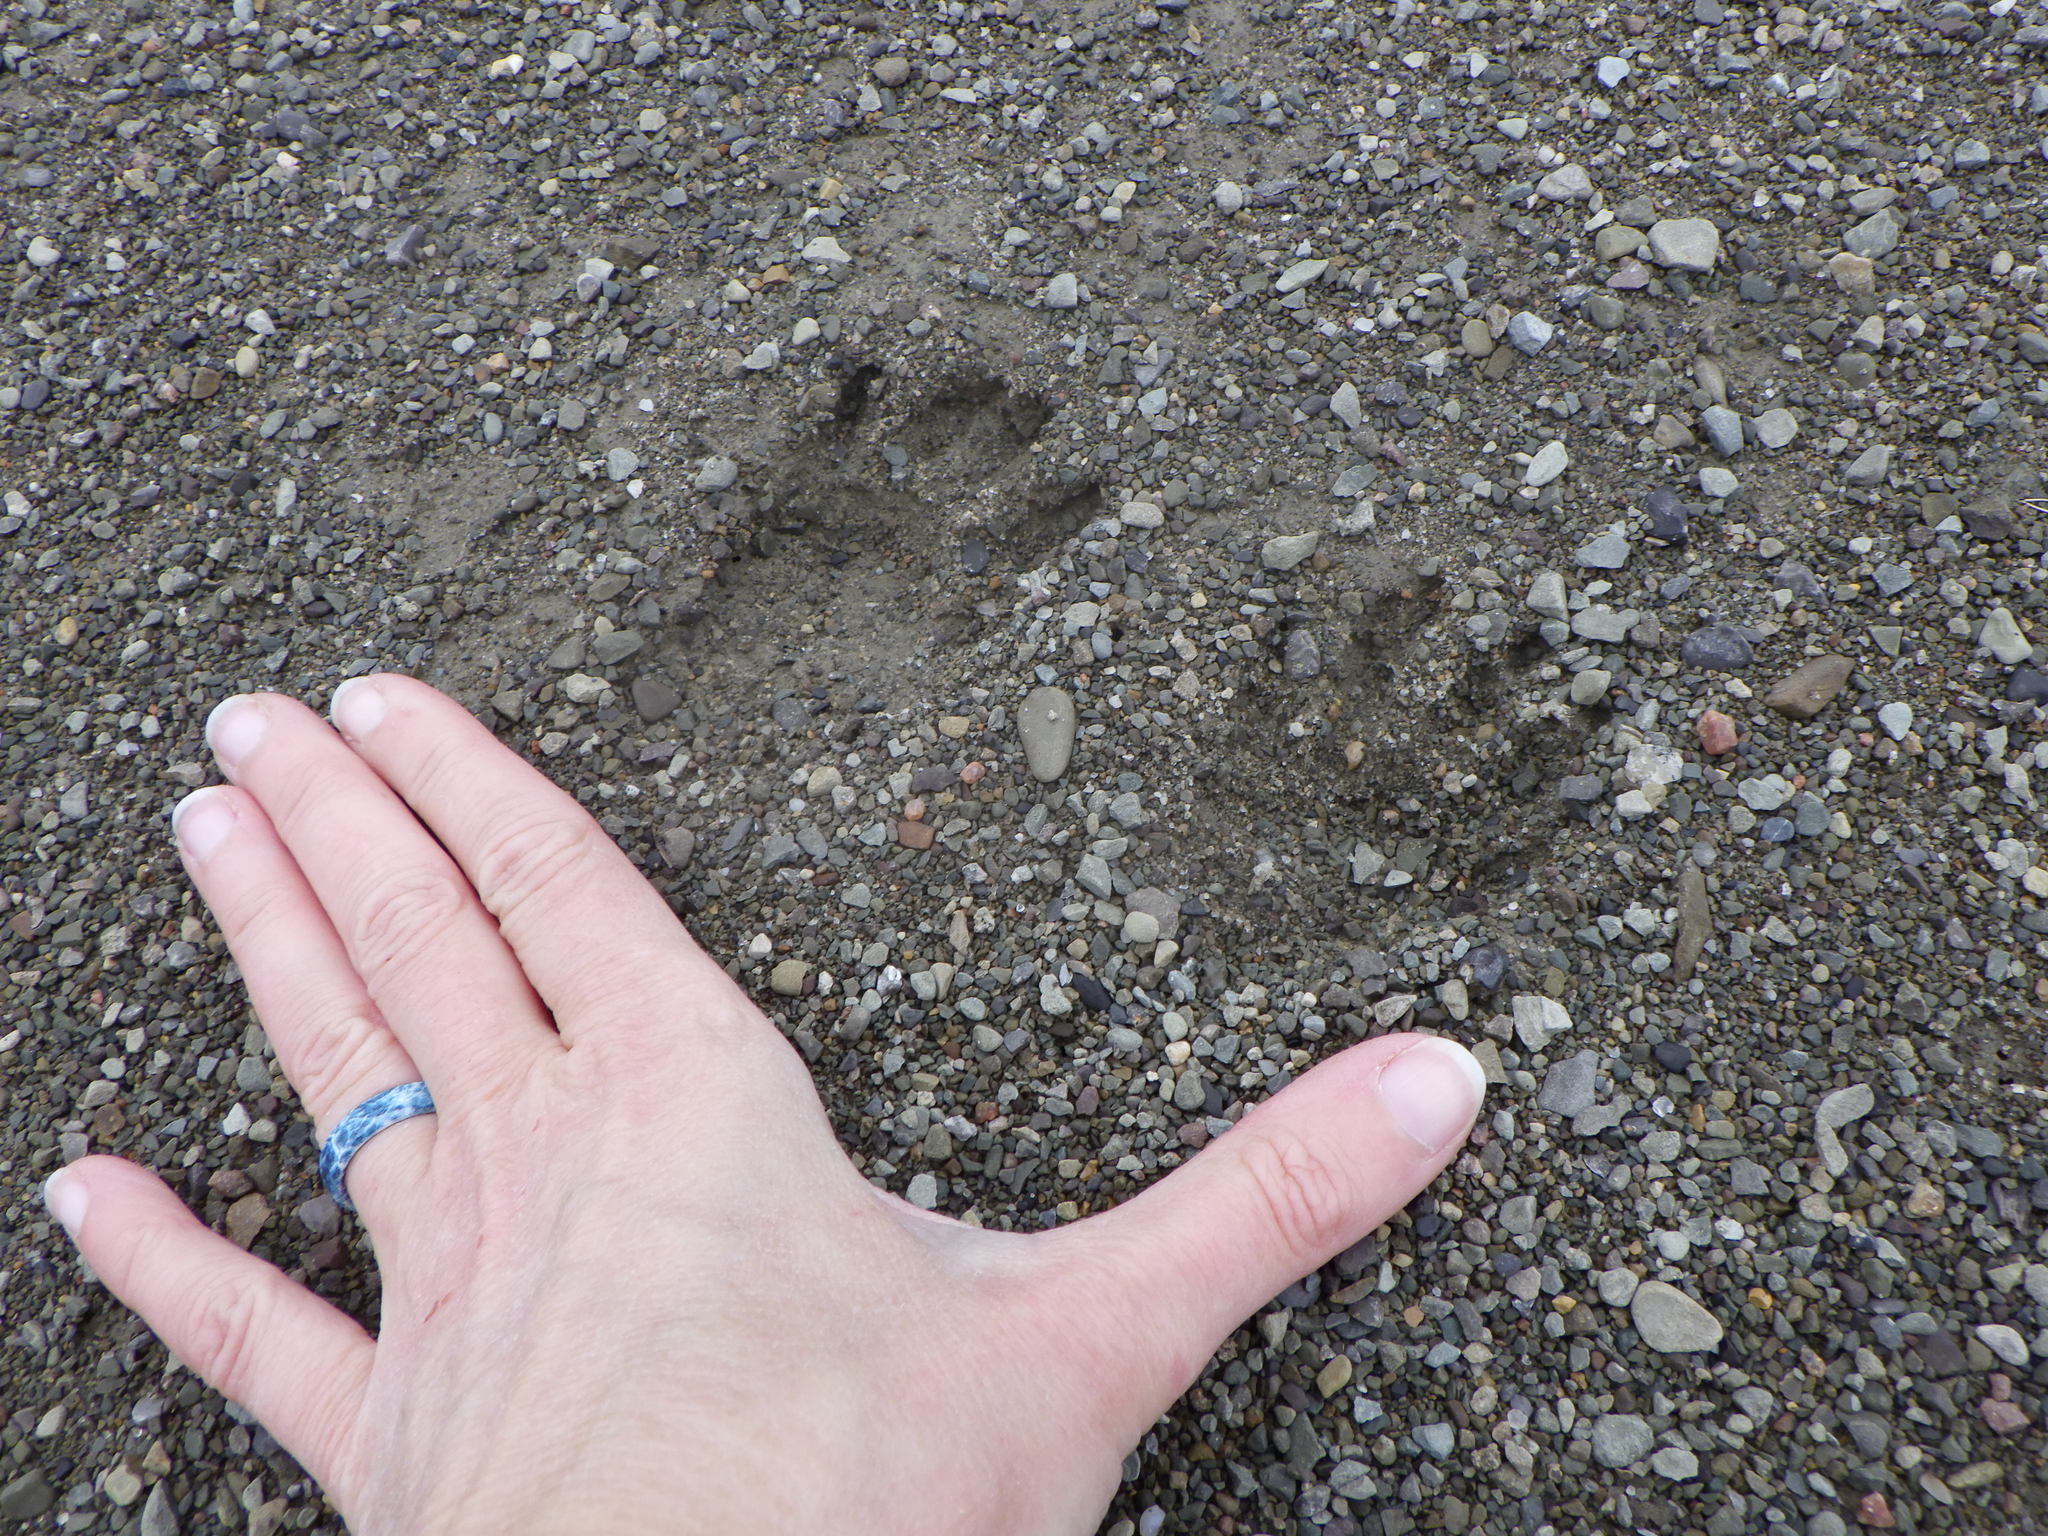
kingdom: Animalia
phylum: Chordata
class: Mammalia
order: Carnivora
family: Procyonidae
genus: Procyon
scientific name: Procyon lotor
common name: Raccoon
